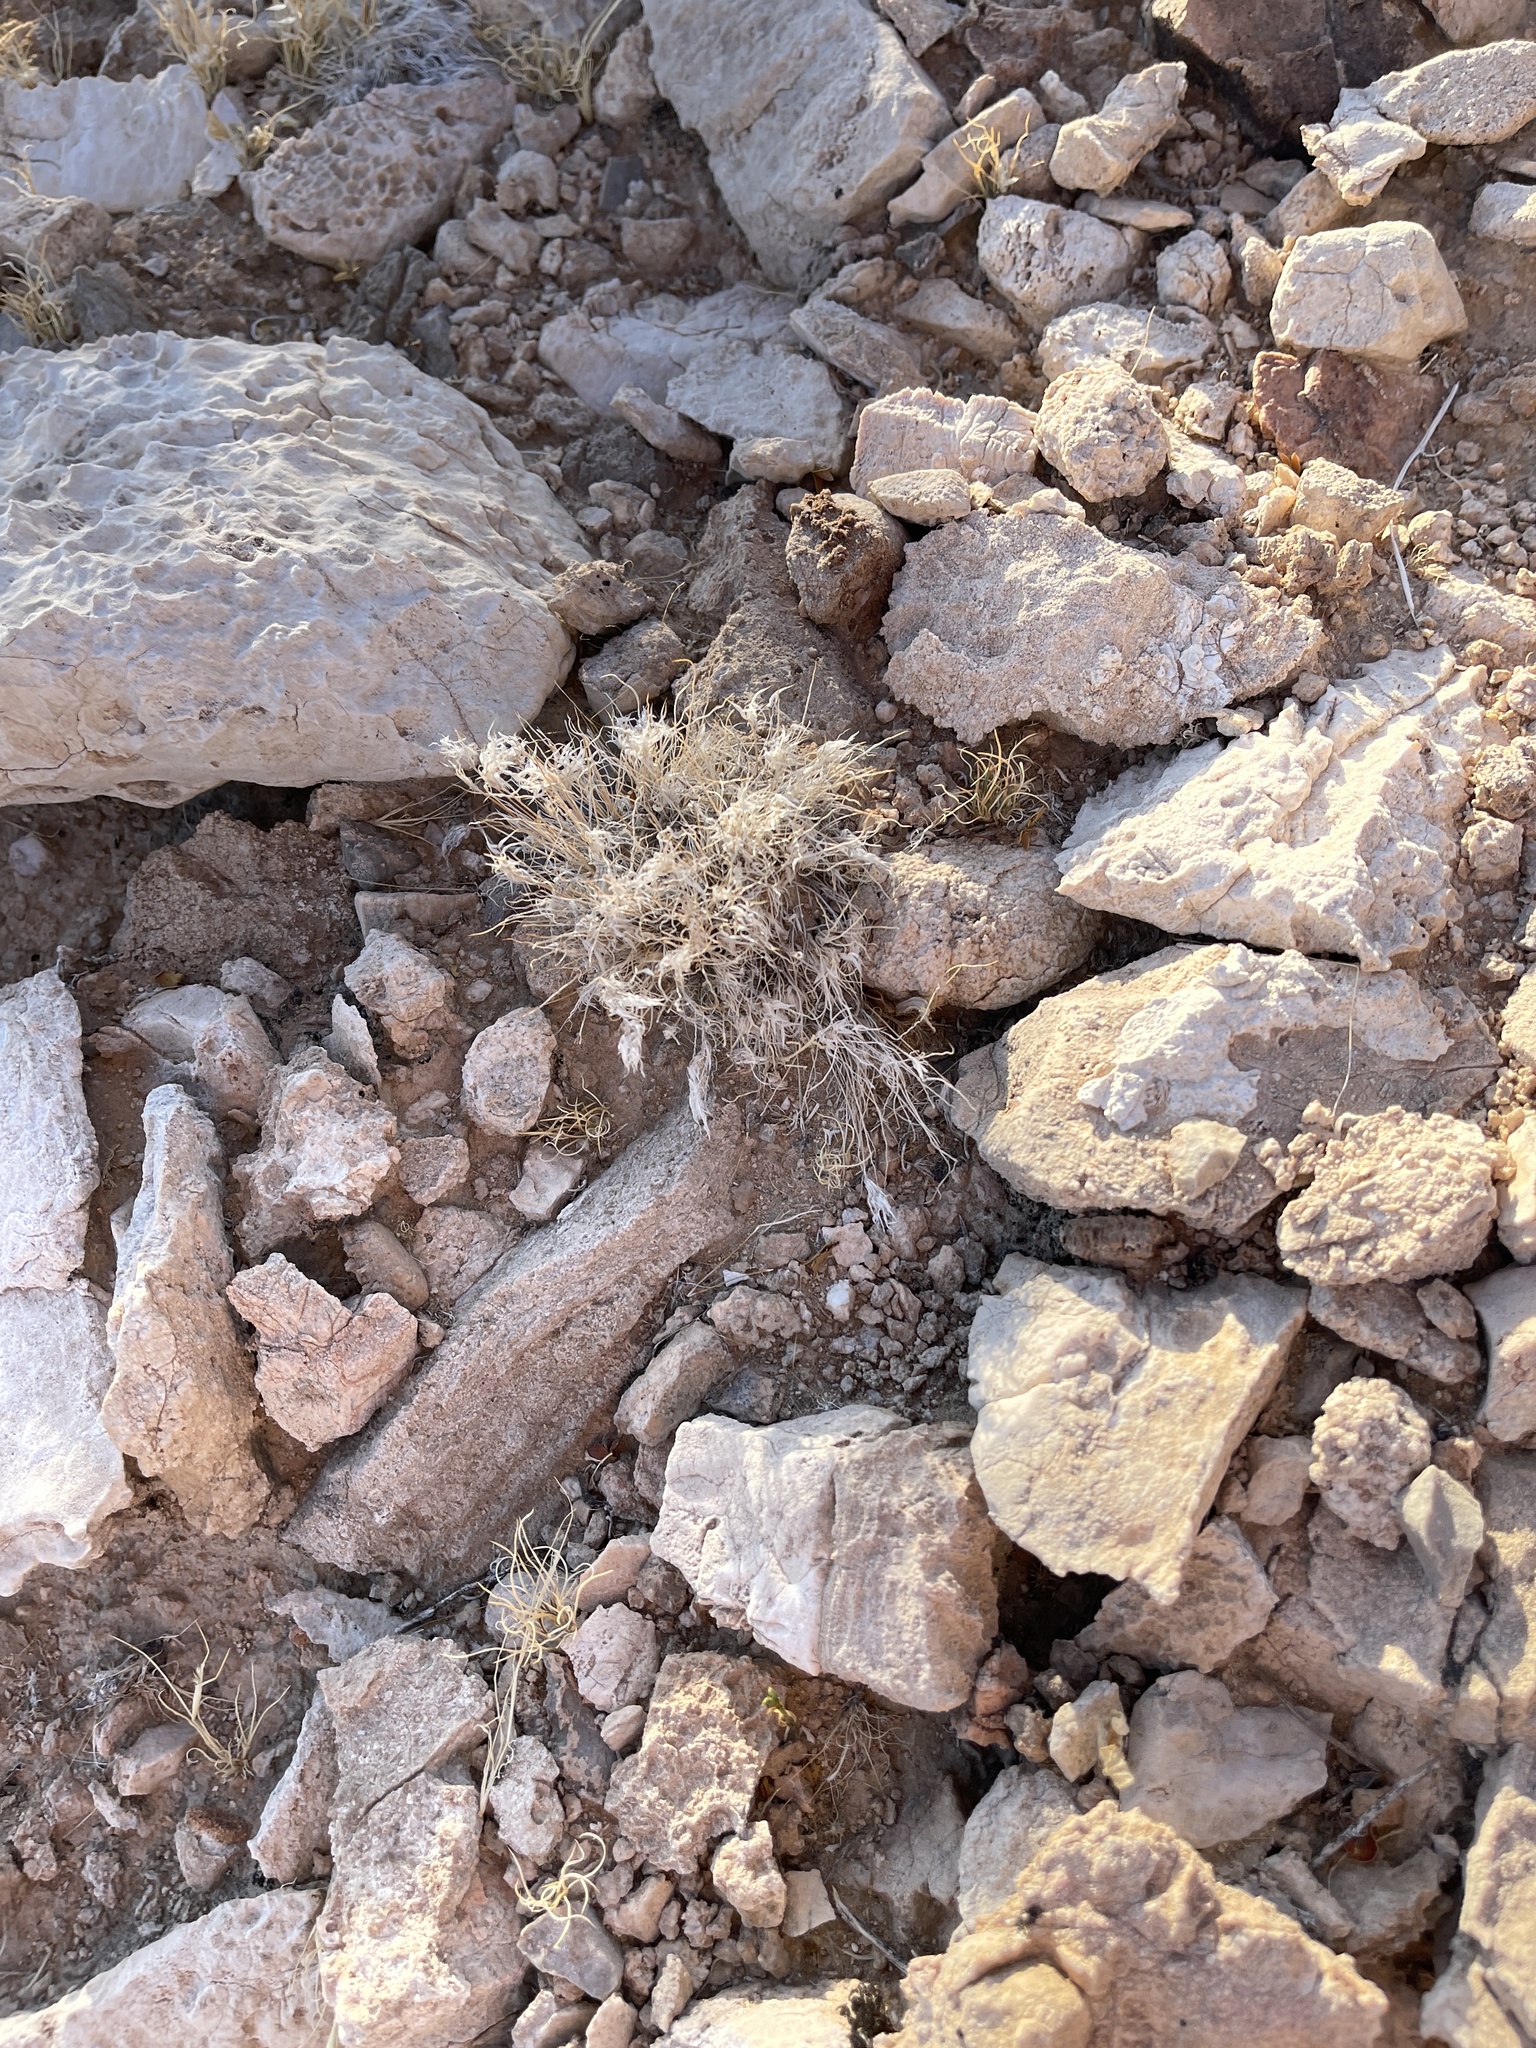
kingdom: Plantae
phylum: Tracheophyta
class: Liliopsida
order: Poales
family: Poaceae
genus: Dasyochloa
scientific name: Dasyochloa pulchella
